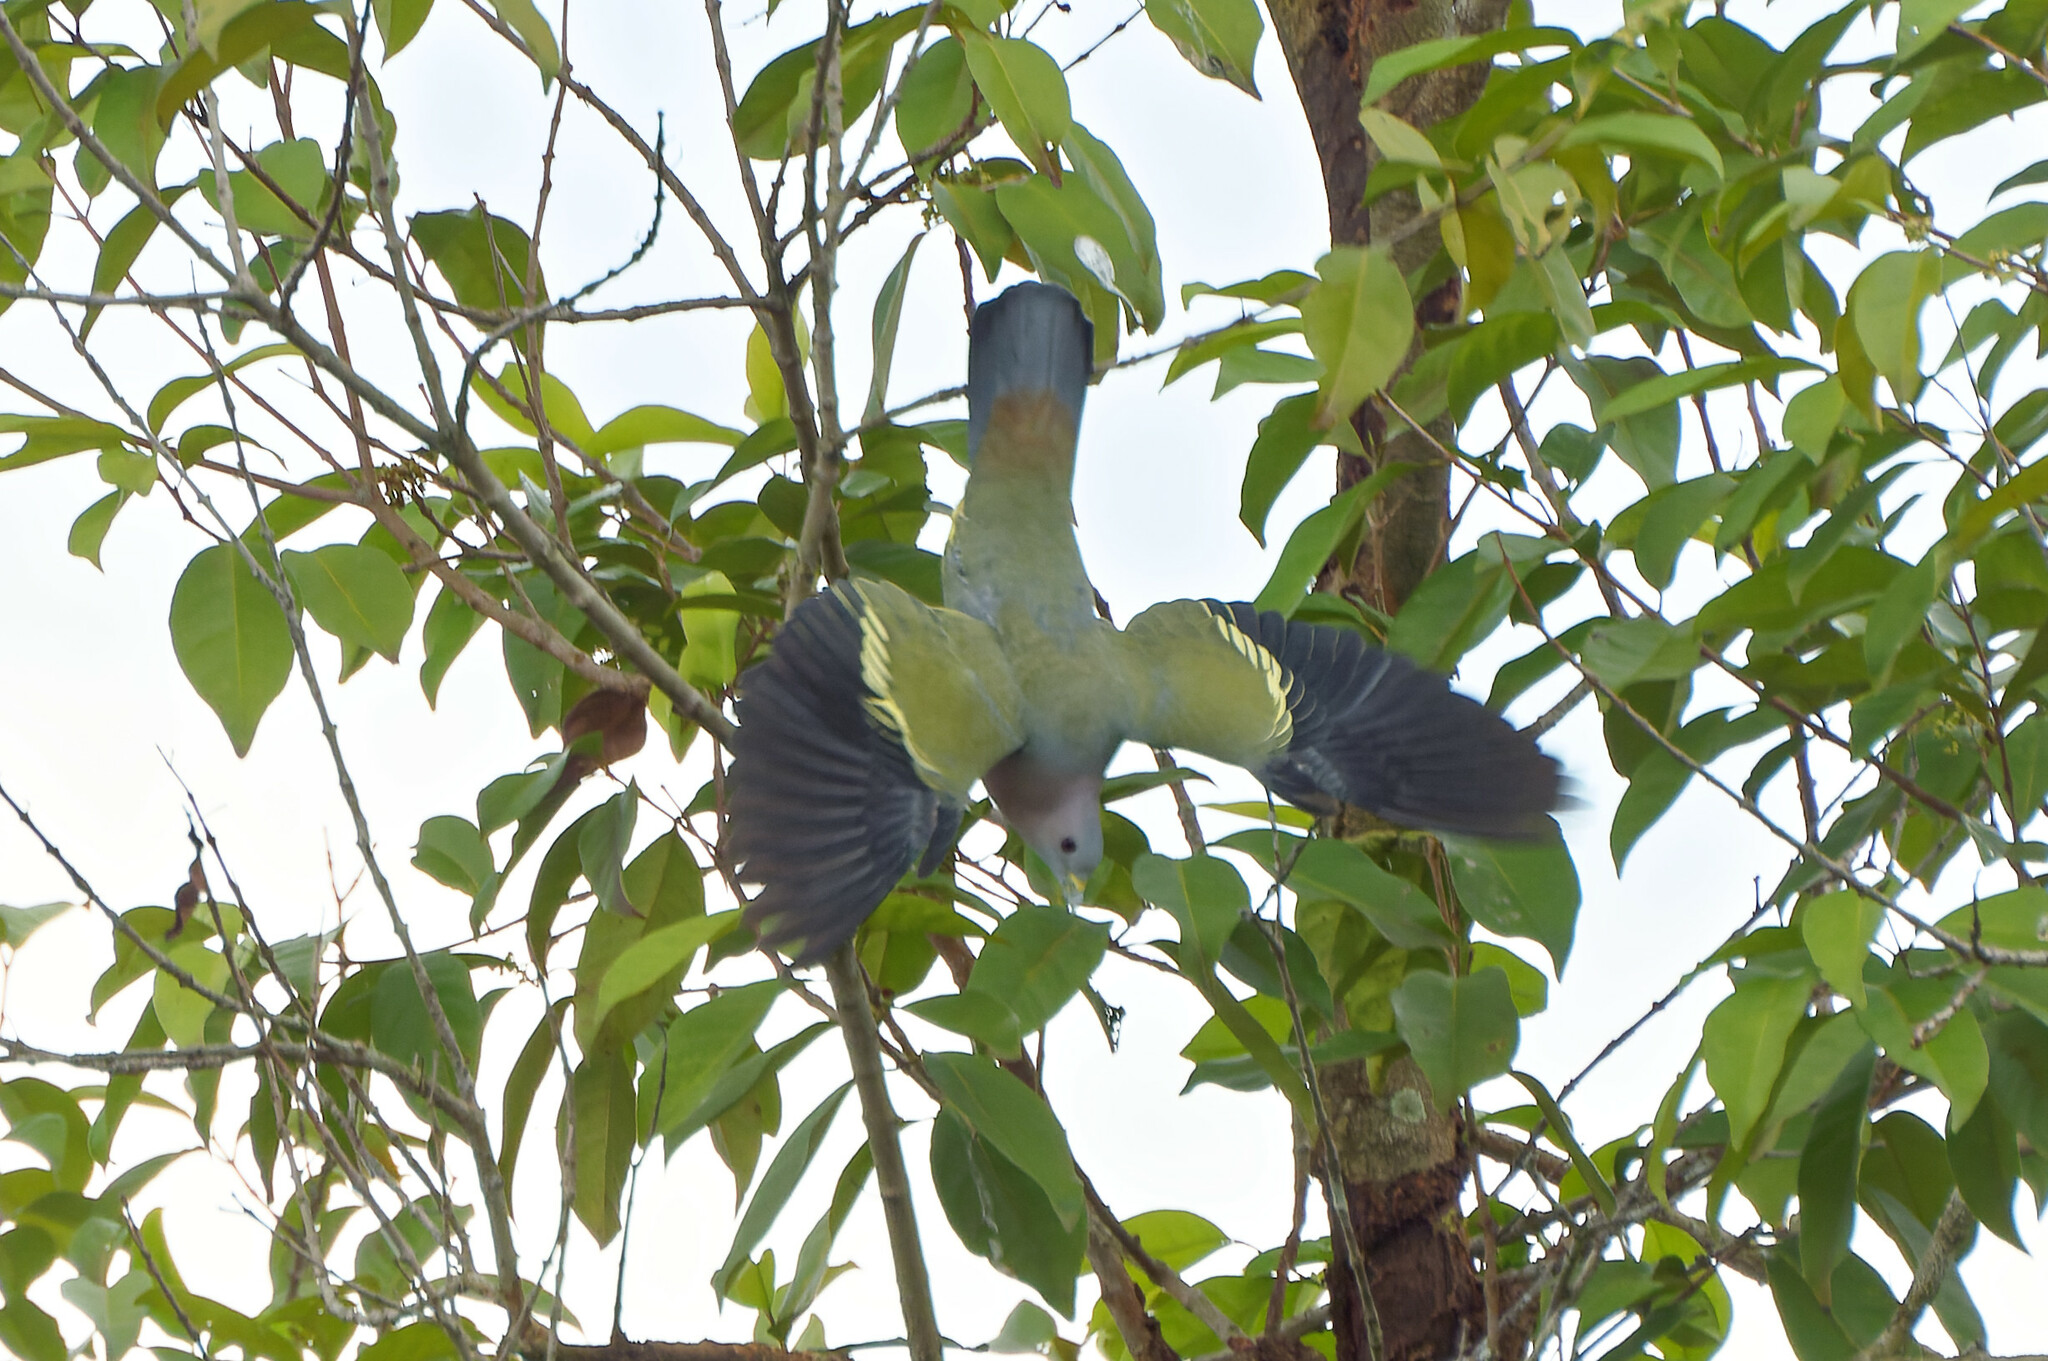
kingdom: Animalia
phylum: Chordata
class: Aves
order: Columbiformes
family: Columbidae
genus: Treron
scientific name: Treron vernans
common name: Pink-necked green pigeon
